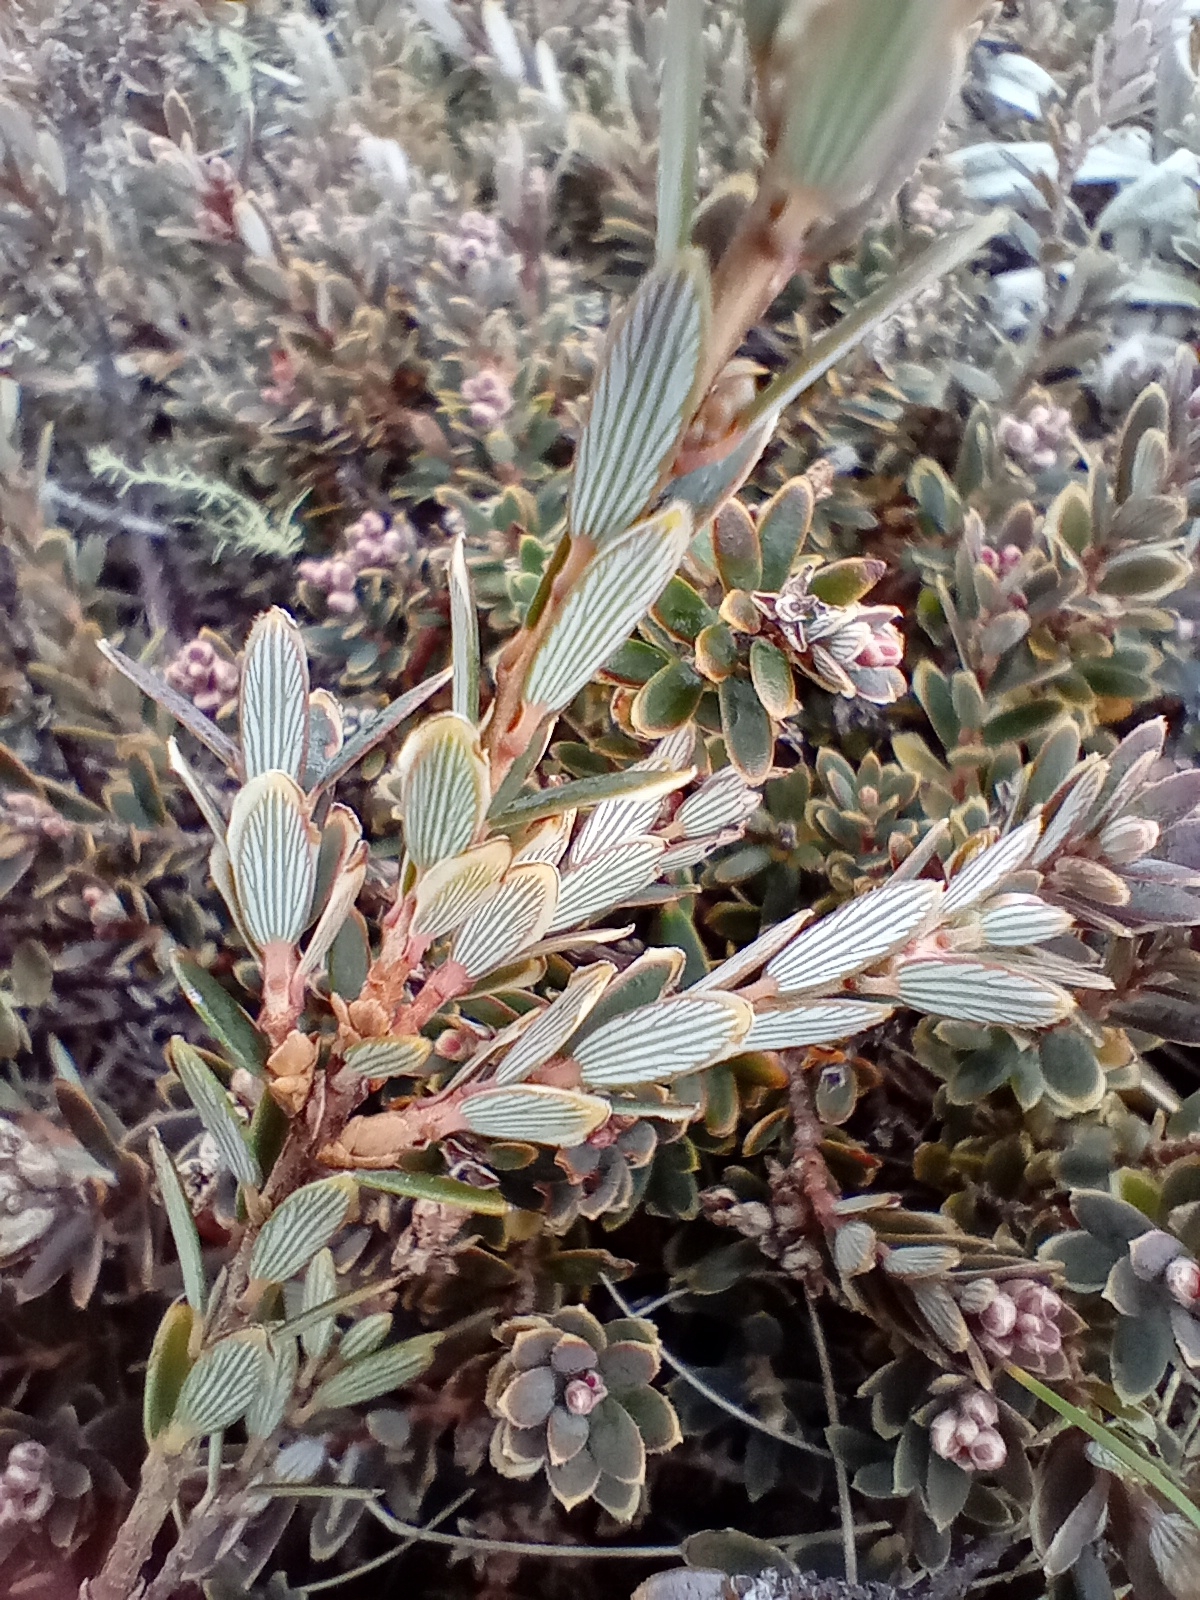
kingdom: Plantae
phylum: Tracheophyta
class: Magnoliopsida
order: Ericales
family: Ericaceae
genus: Acrothamnus
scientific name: Acrothamnus colensoi
